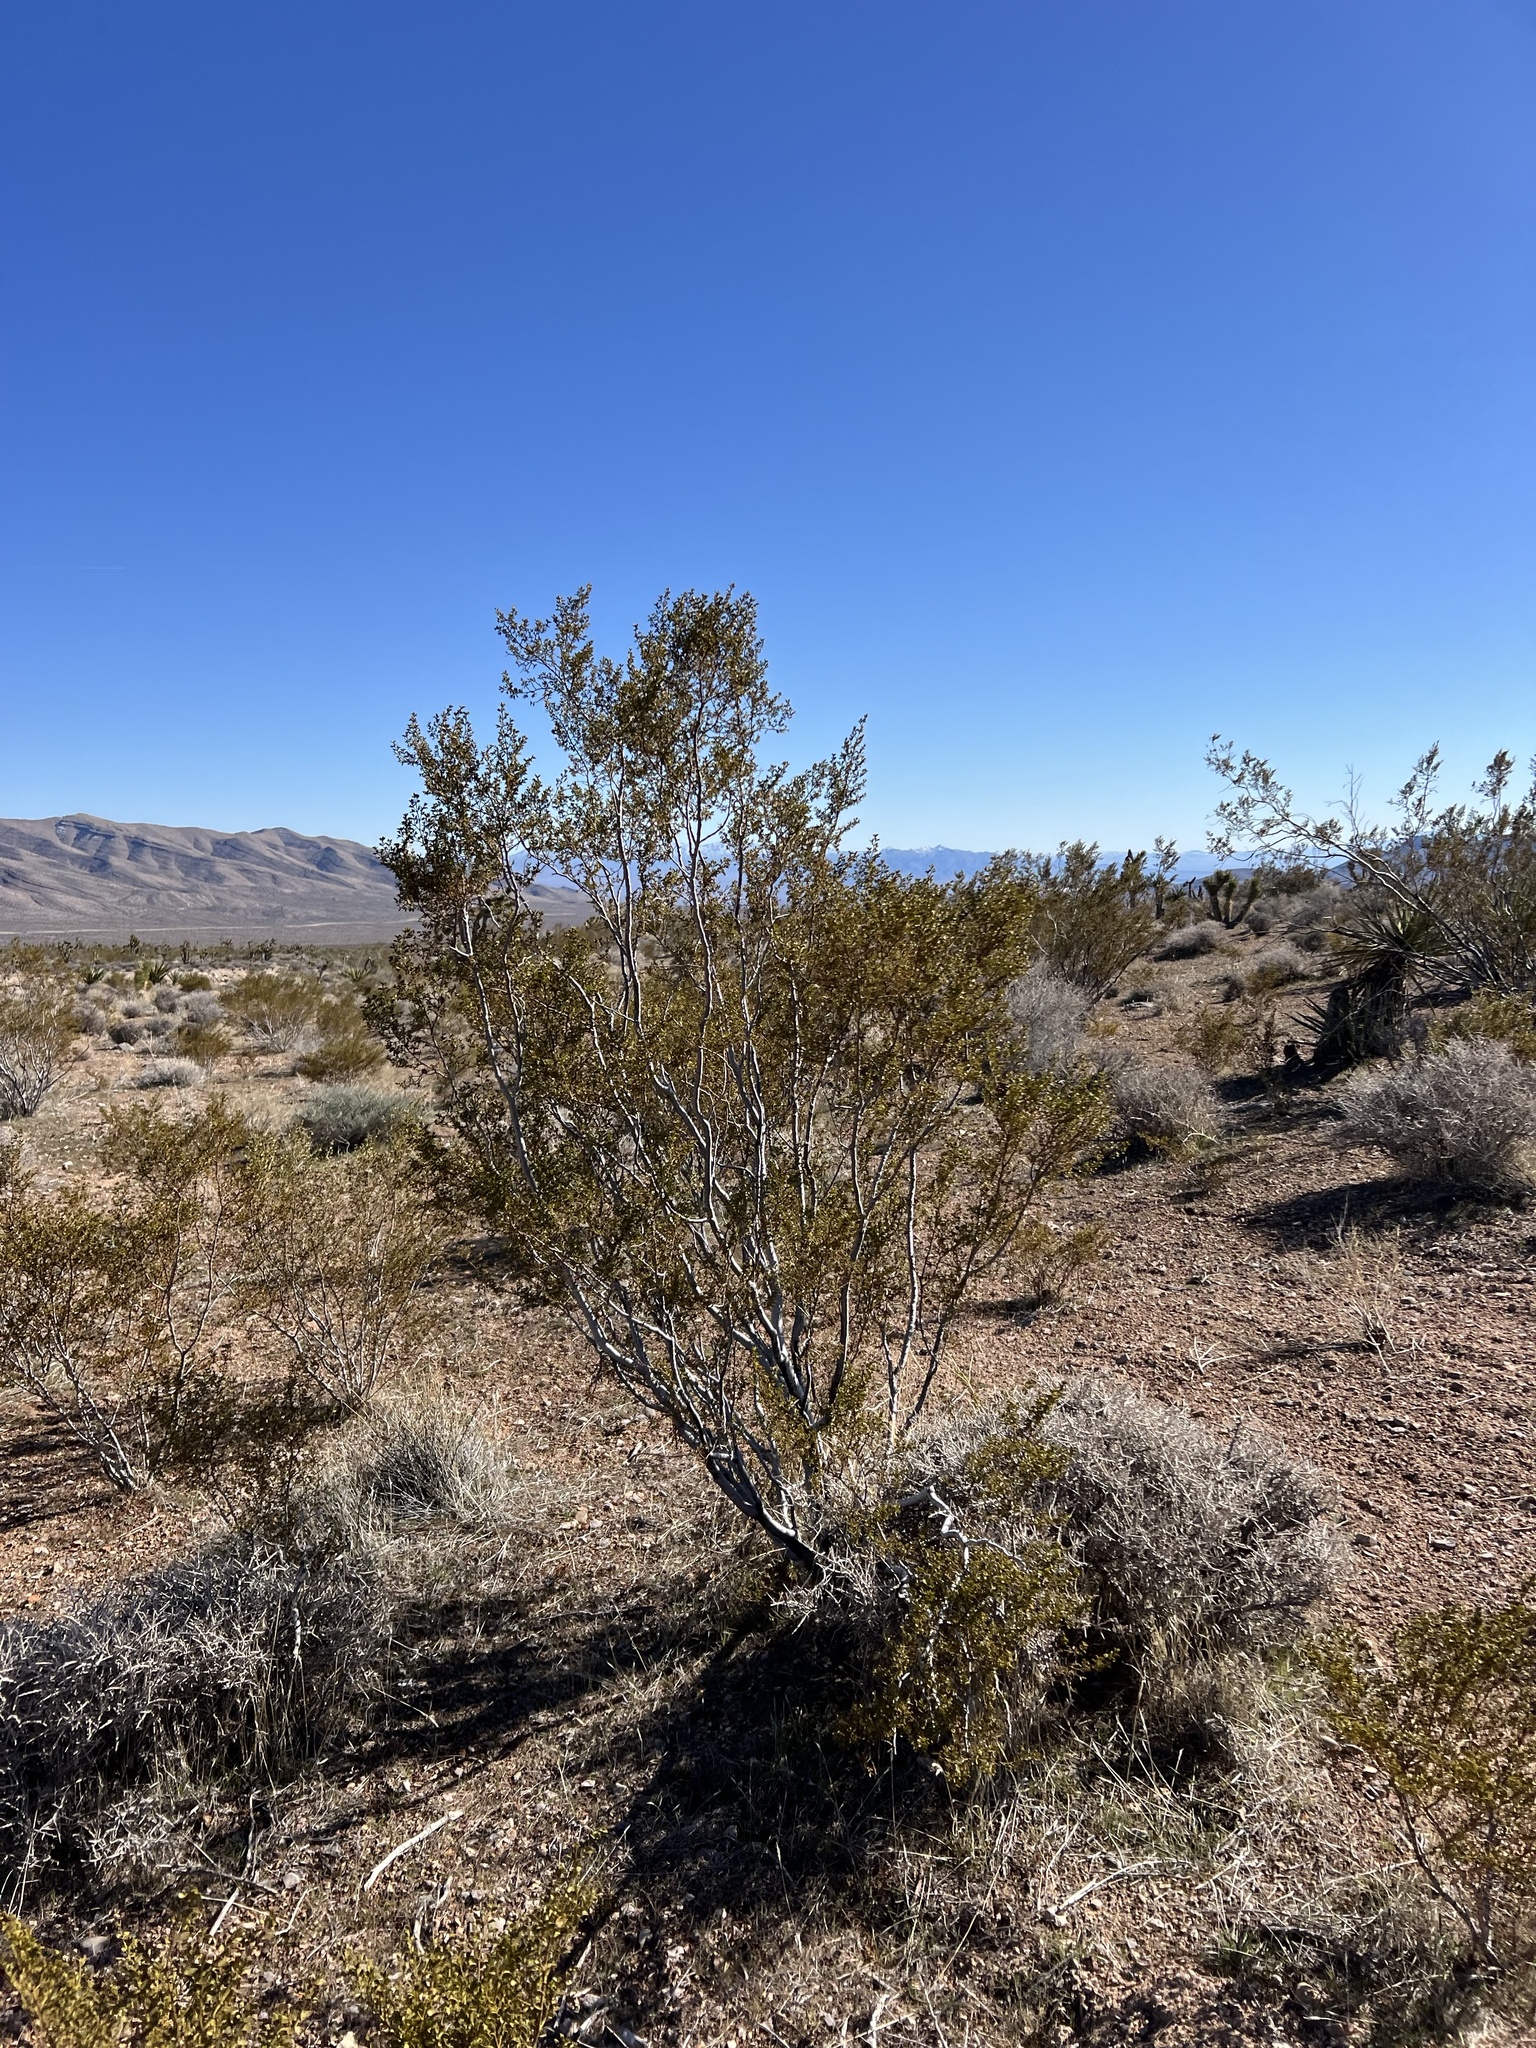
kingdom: Plantae
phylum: Tracheophyta
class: Magnoliopsida
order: Zygophyllales
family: Zygophyllaceae
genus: Larrea
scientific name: Larrea tridentata
